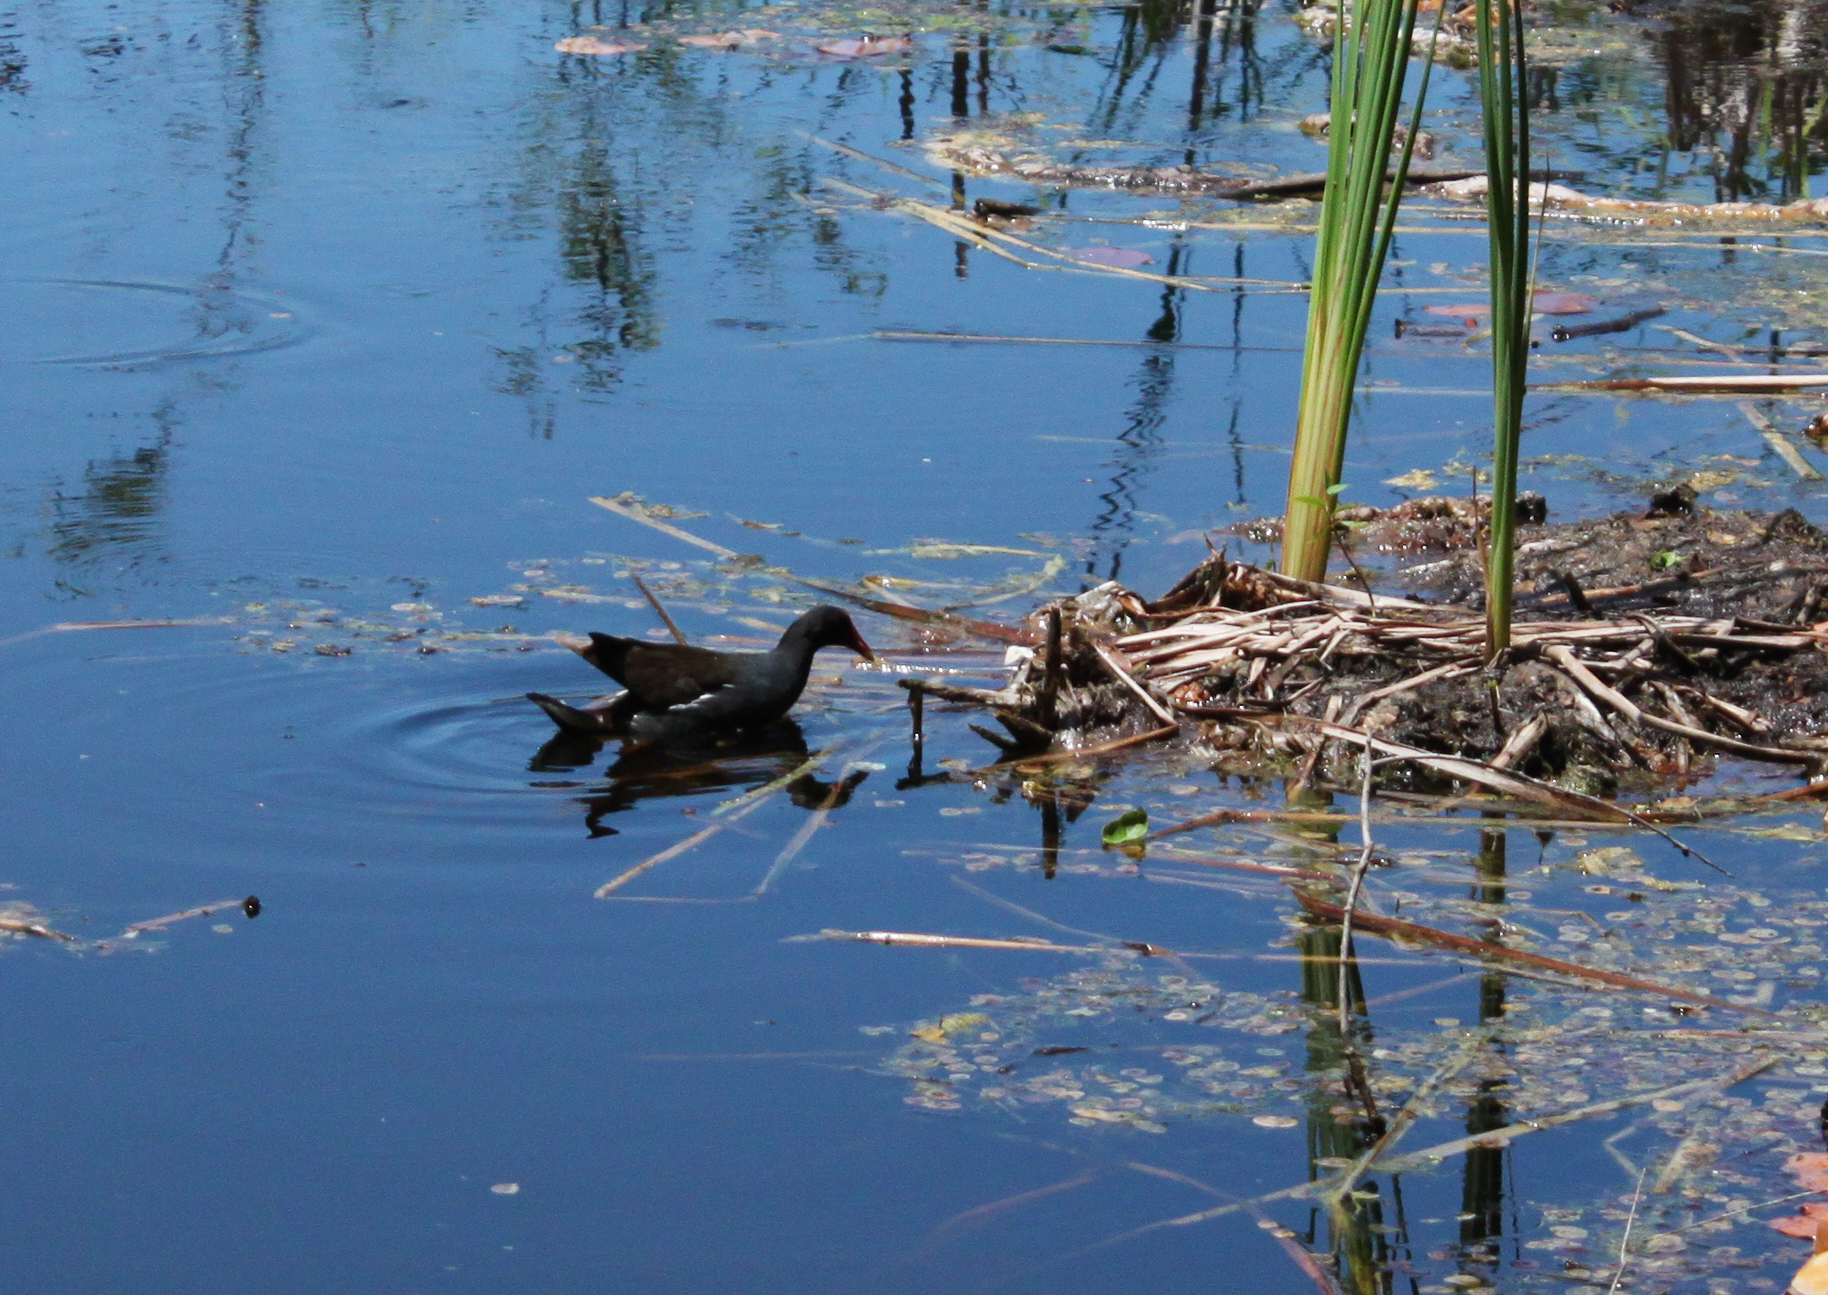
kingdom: Animalia
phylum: Chordata
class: Aves
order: Gruiformes
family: Rallidae
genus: Gallinula
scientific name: Gallinula chloropus
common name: Common moorhen
